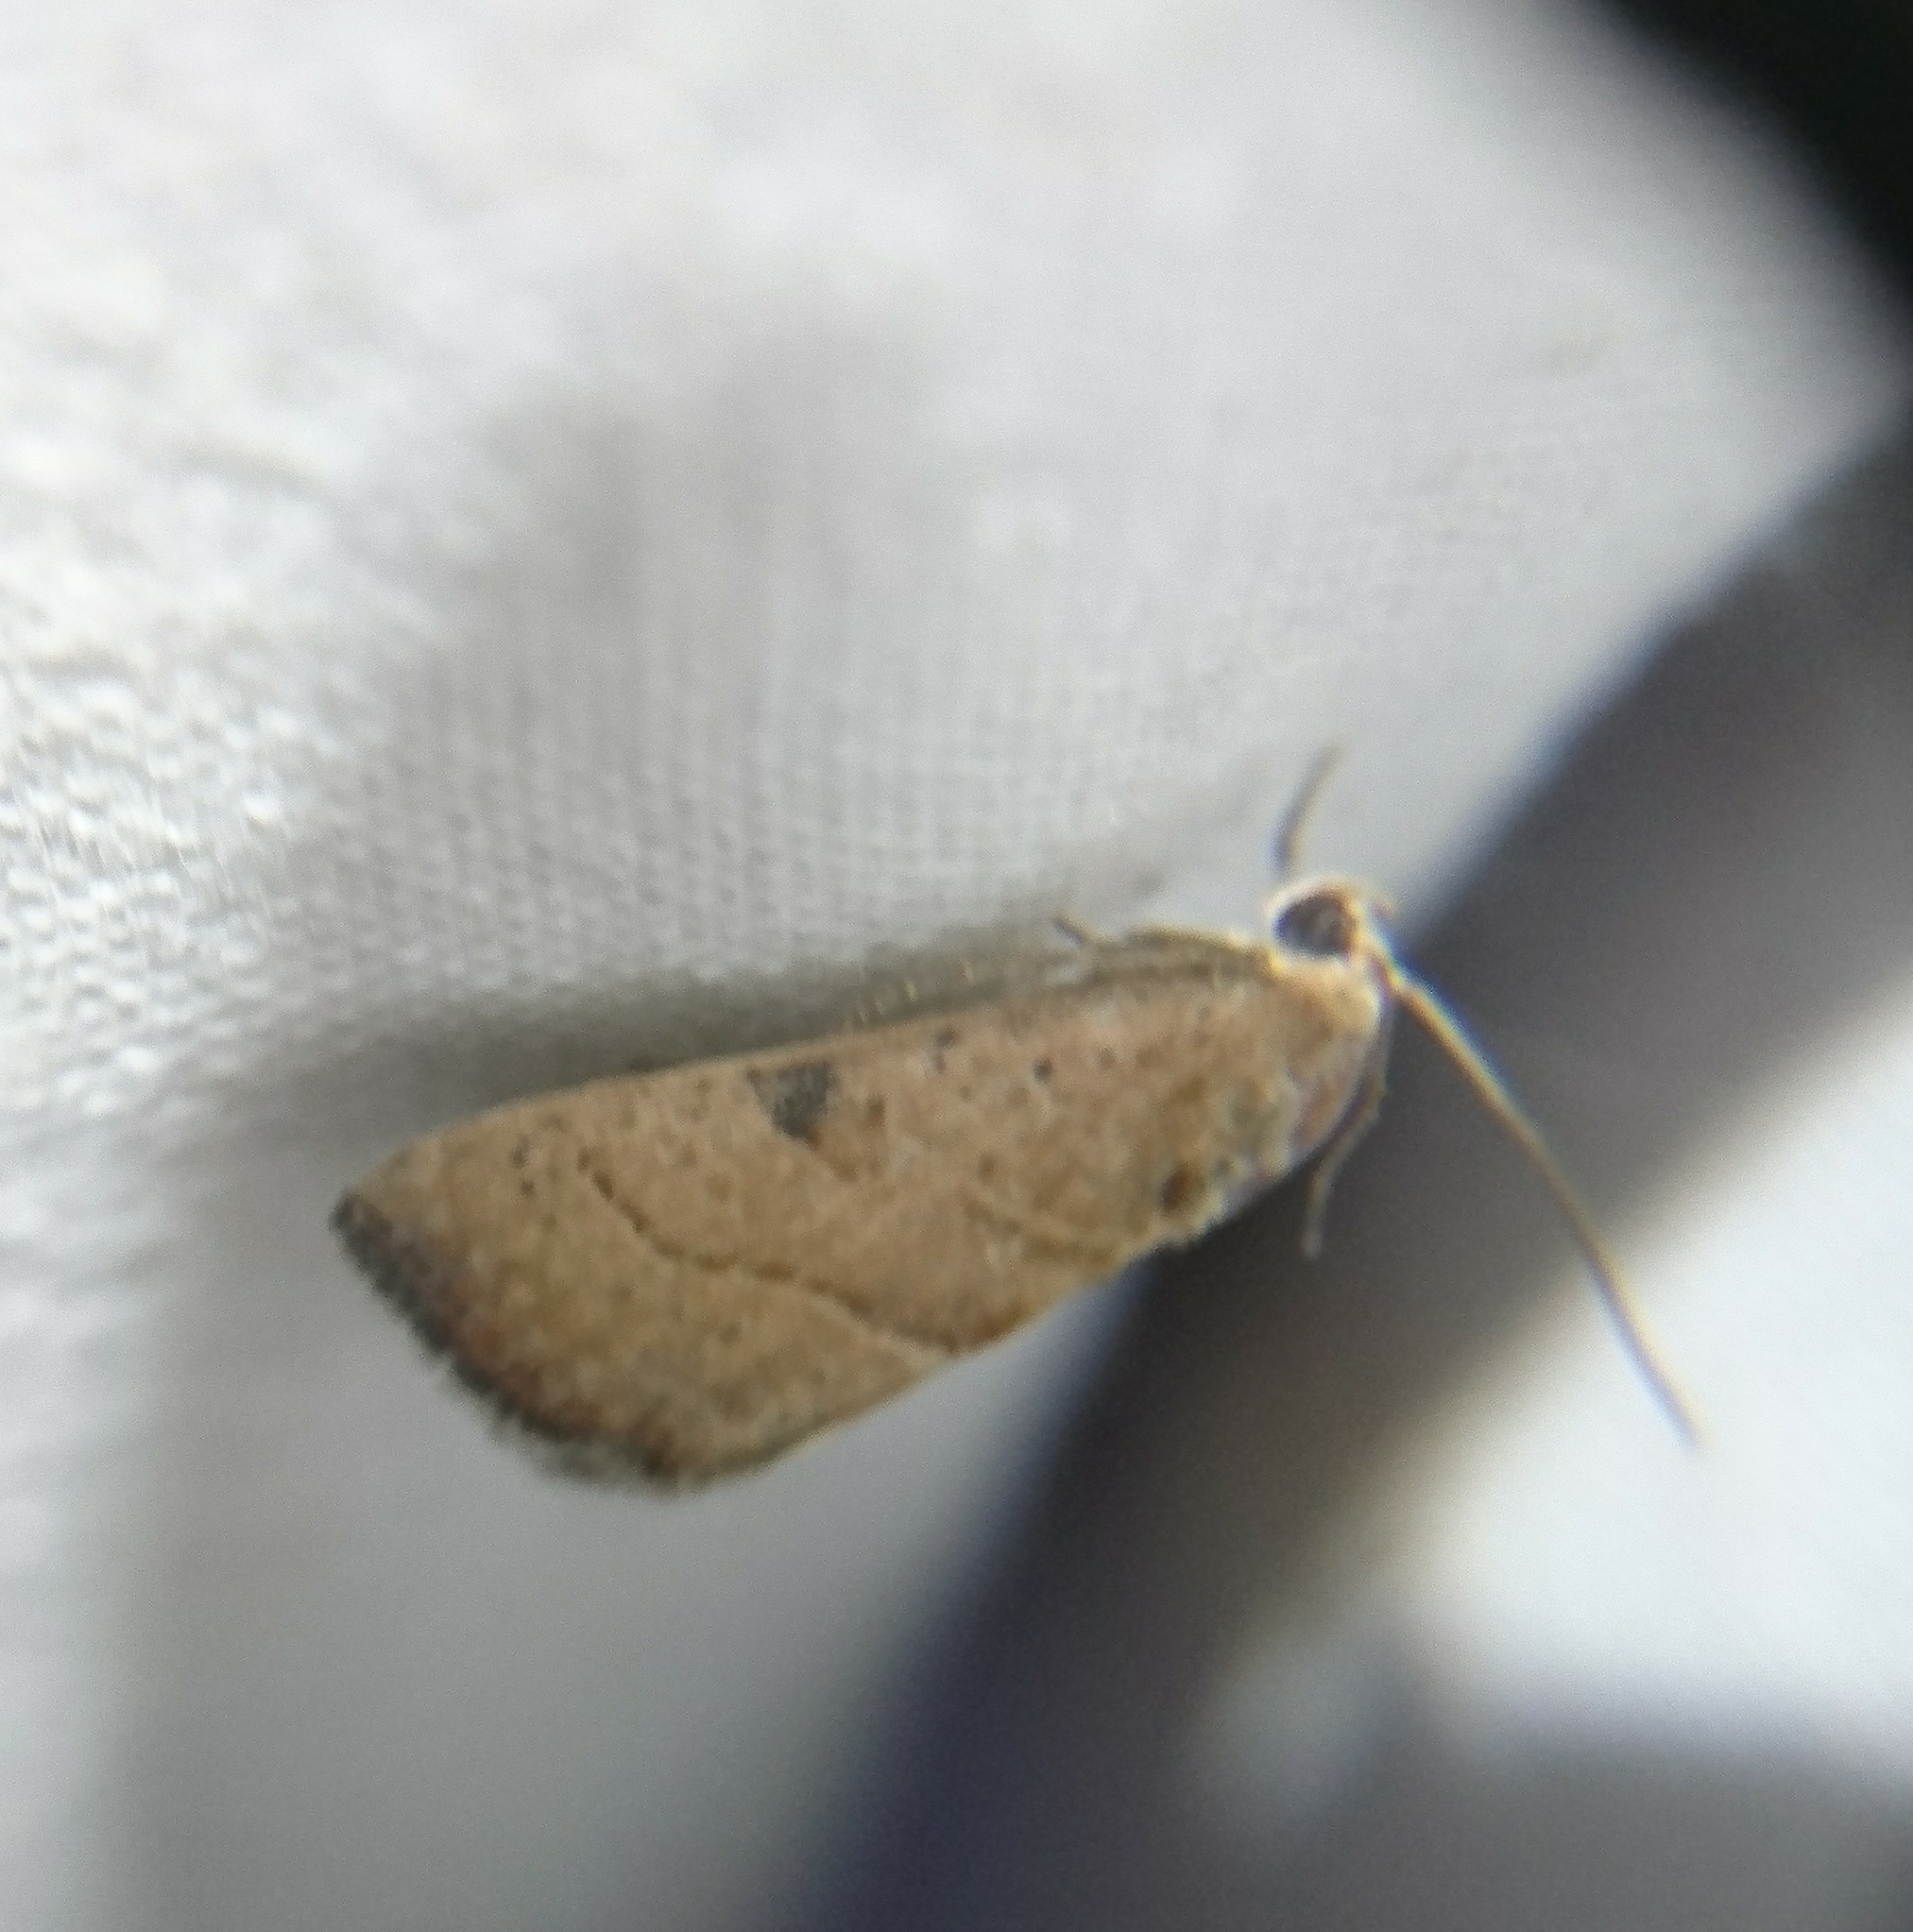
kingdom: Animalia
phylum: Arthropoda
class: Insecta
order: Lepidoptera
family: Noctuidae
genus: Galgula
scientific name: Galgula partita
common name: Wedgeling
